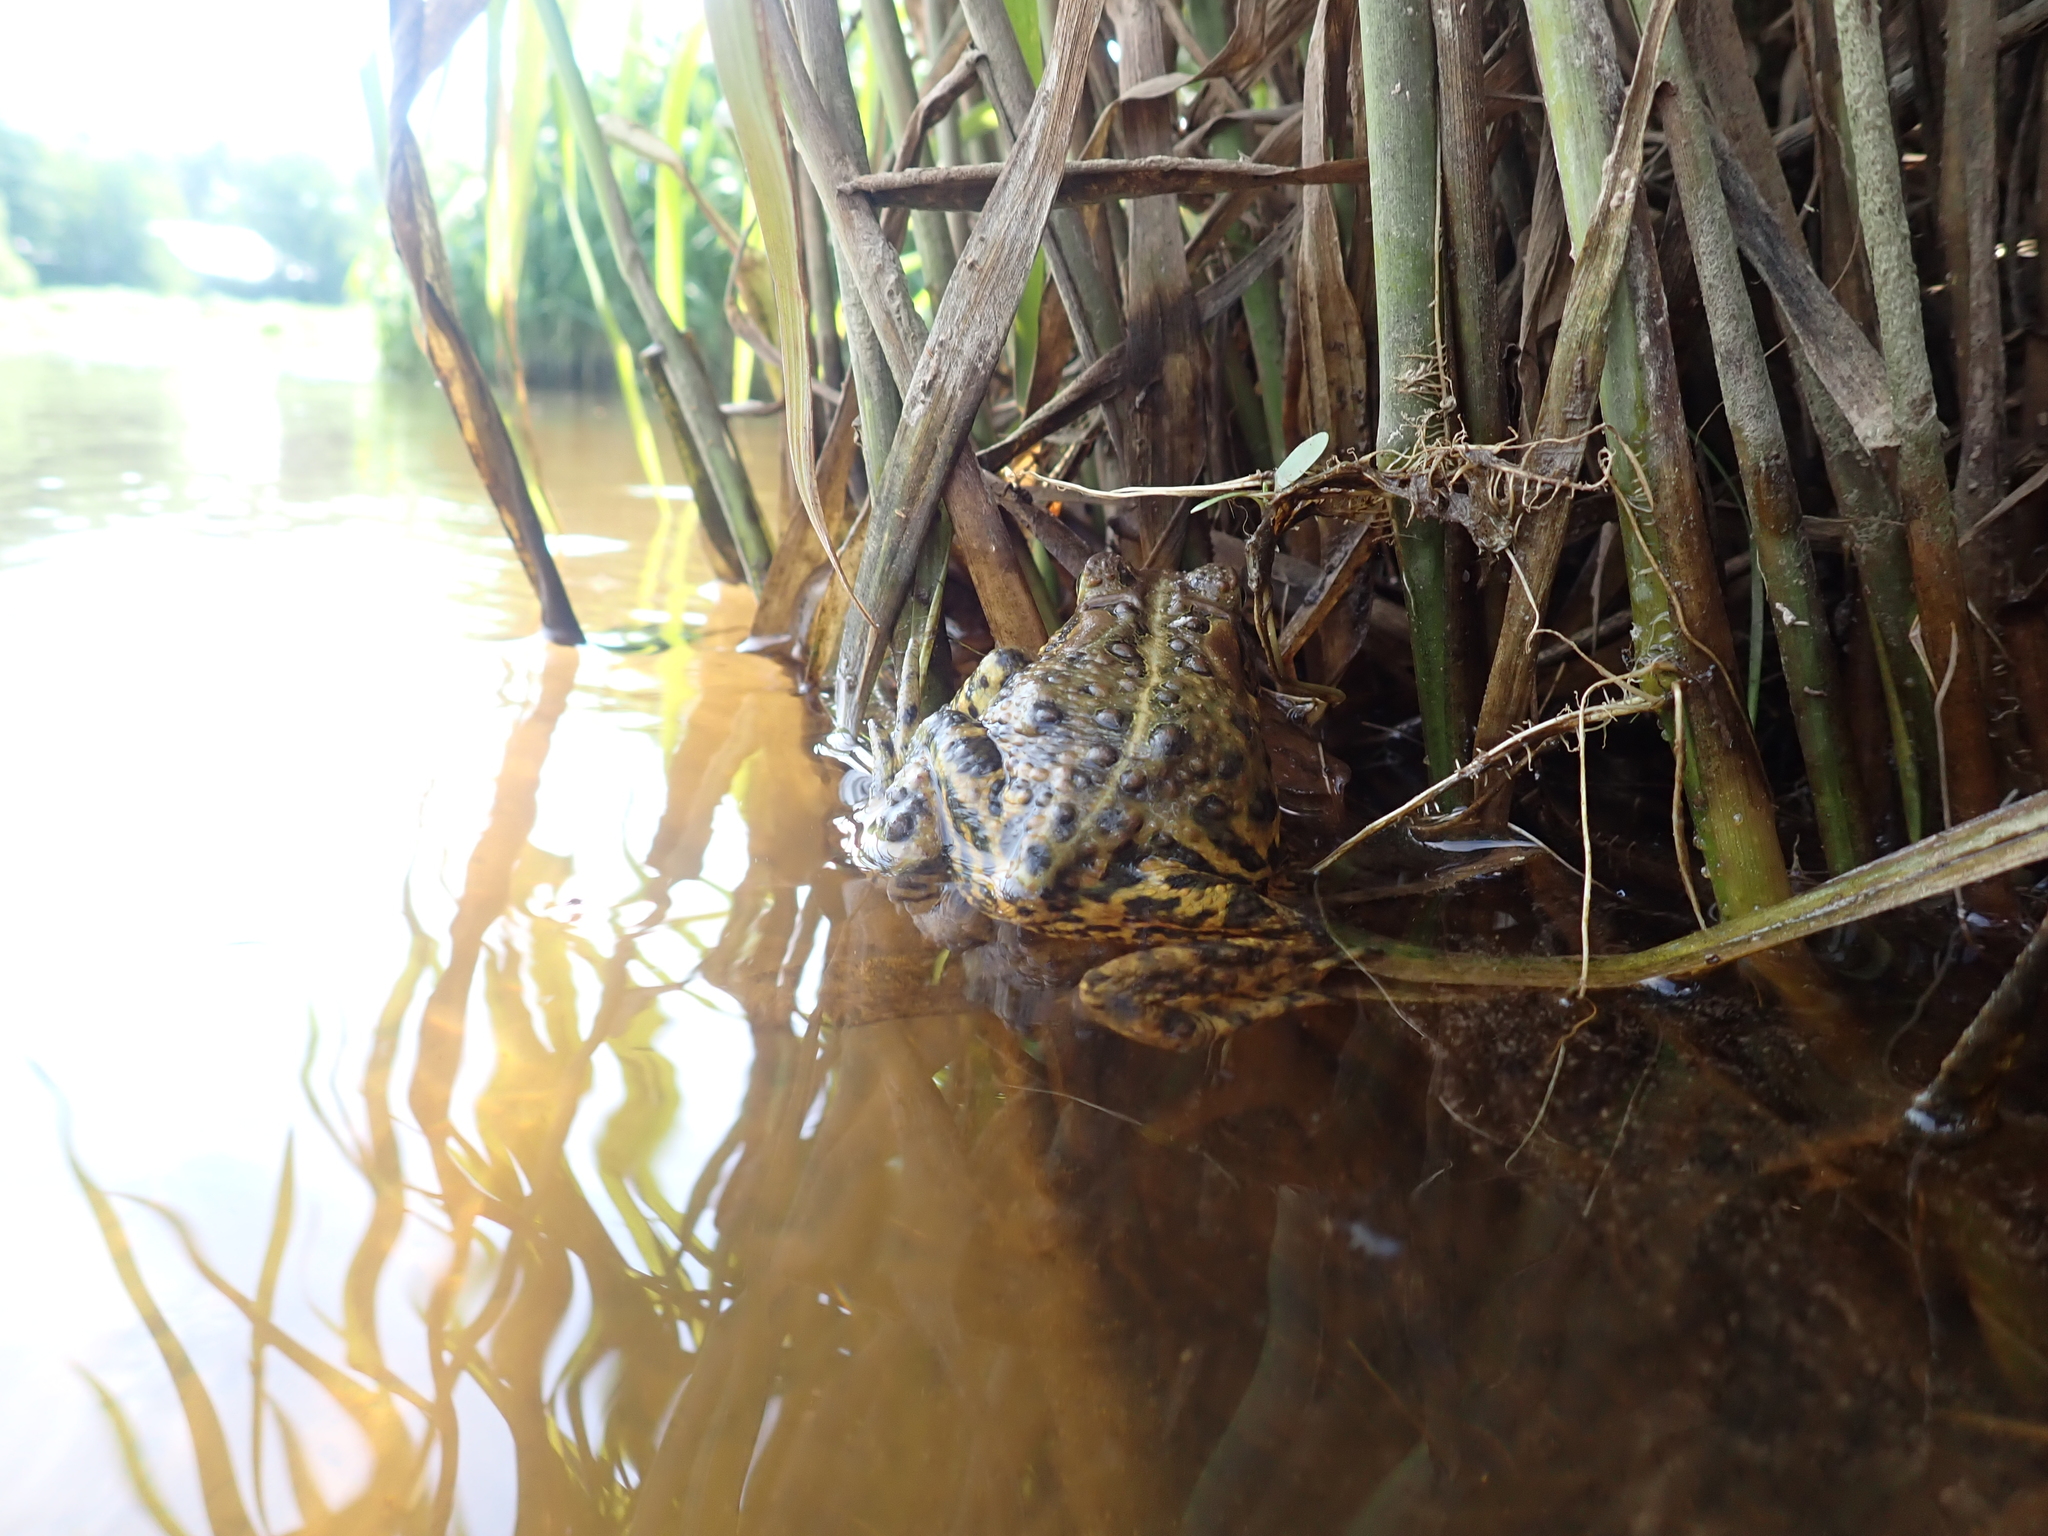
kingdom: Animalia
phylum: Chordata
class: Amphibia
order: Anura
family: Bufonidae
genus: Anaxyrus
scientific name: Anaxyrus americanus
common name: American toad
